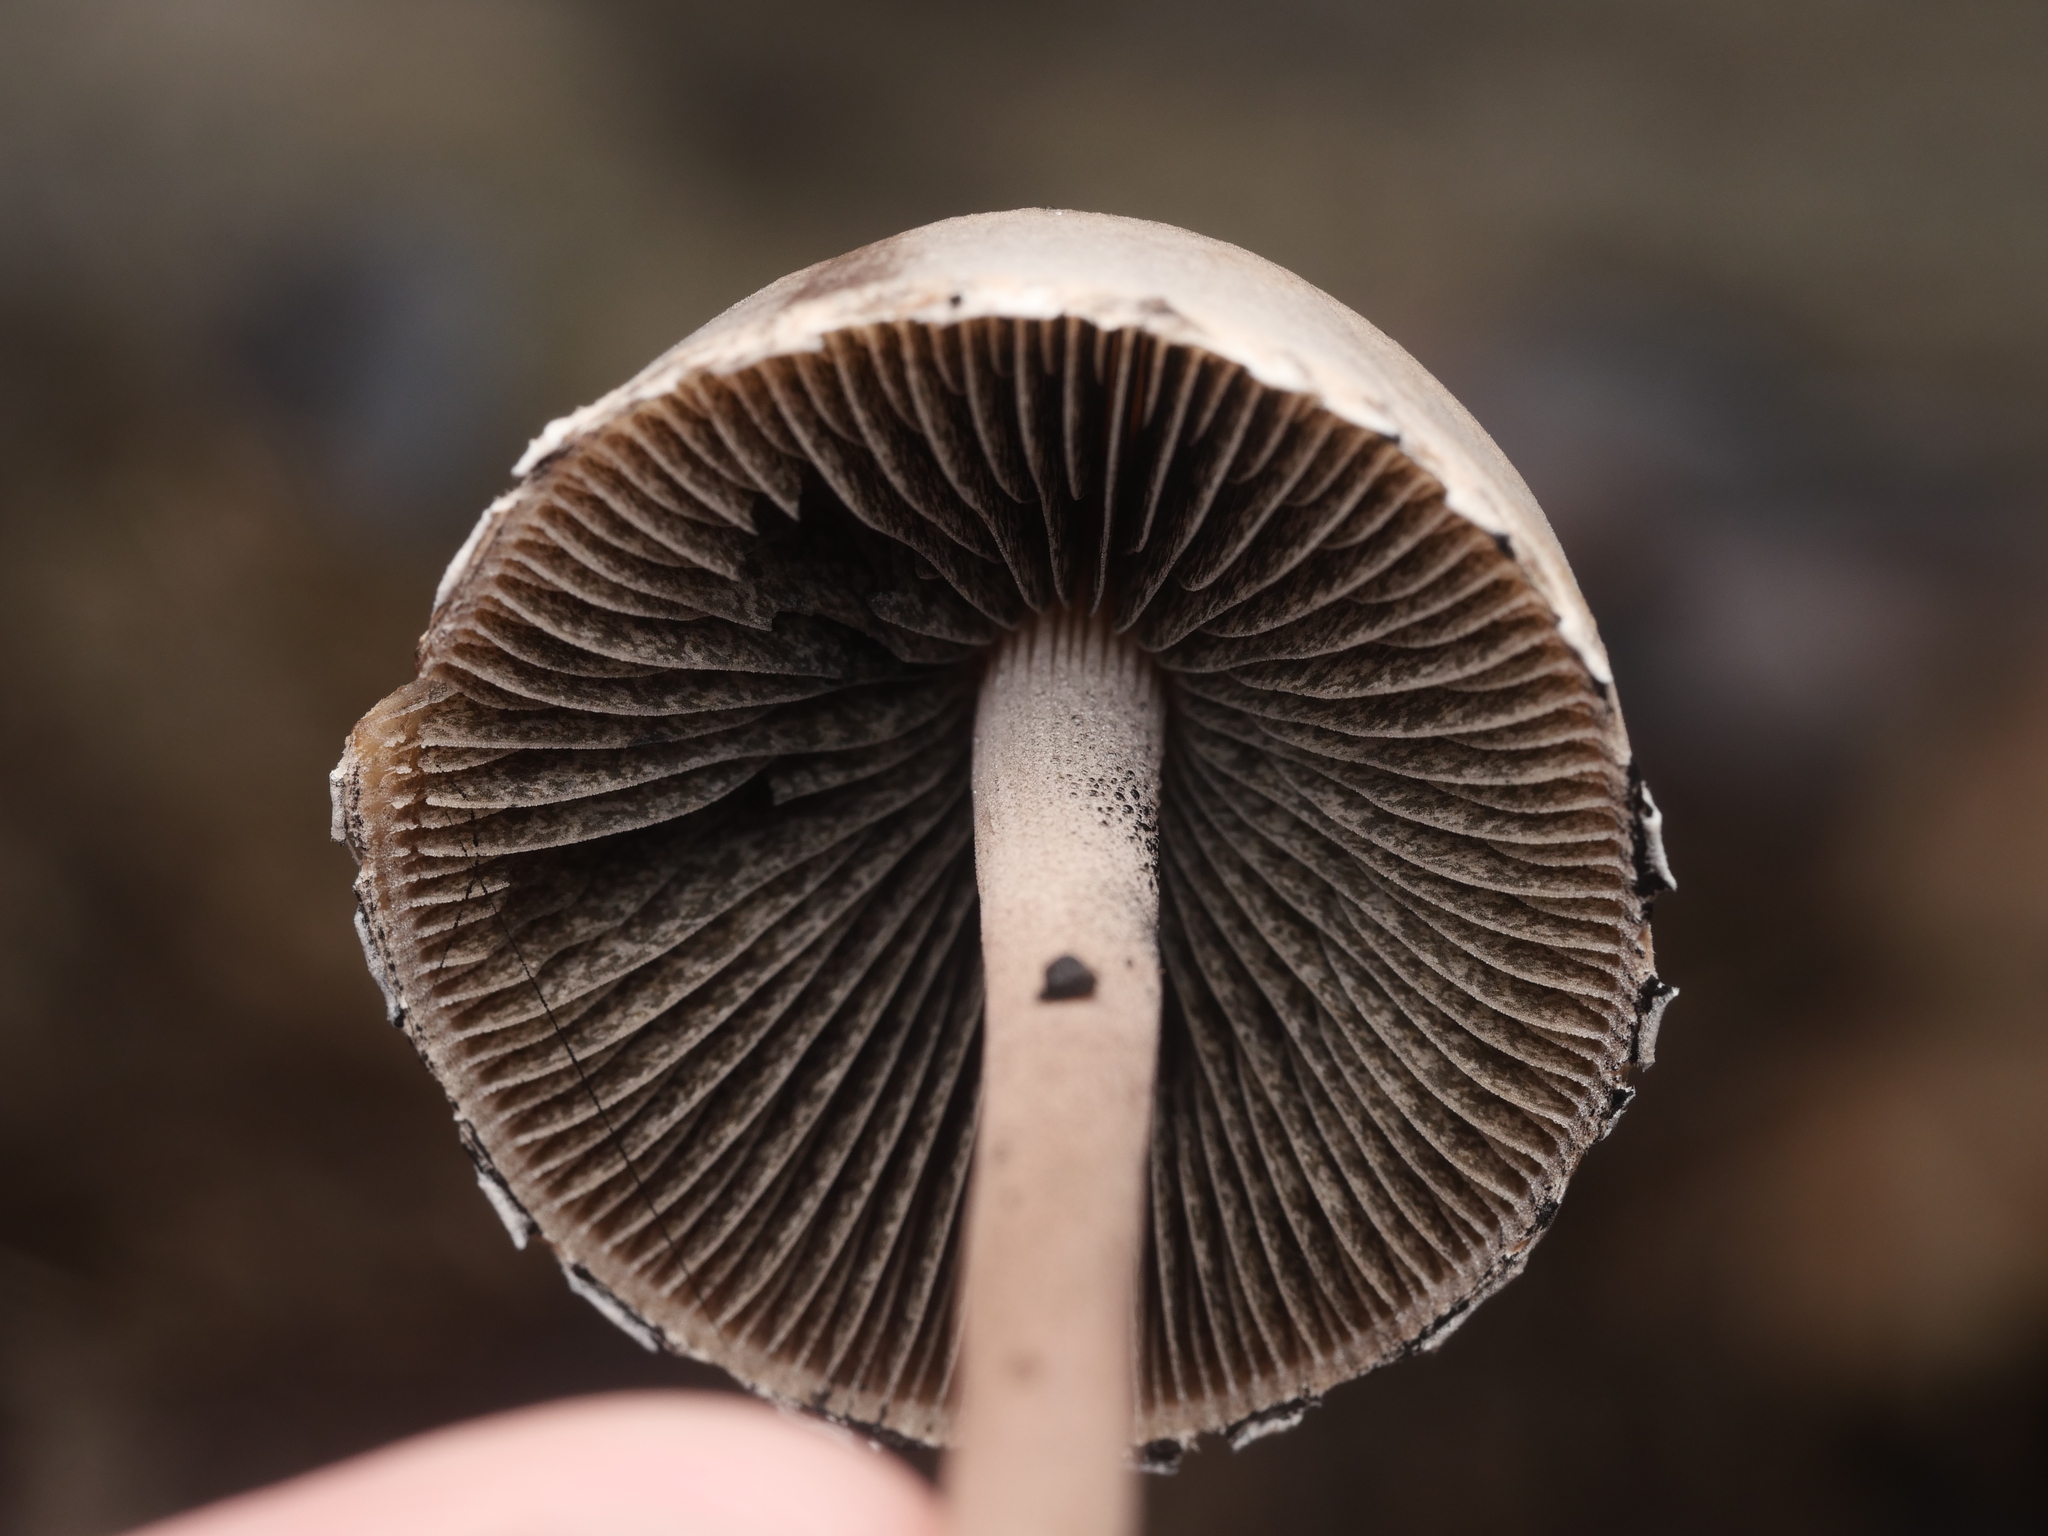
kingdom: Fungi
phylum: Basidiomycota
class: Agaricomycetes
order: Agaricales
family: Bolbitiaceae
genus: Panaeolus
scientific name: Panaeolus papilionaceus
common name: Petticoat mottlegill
